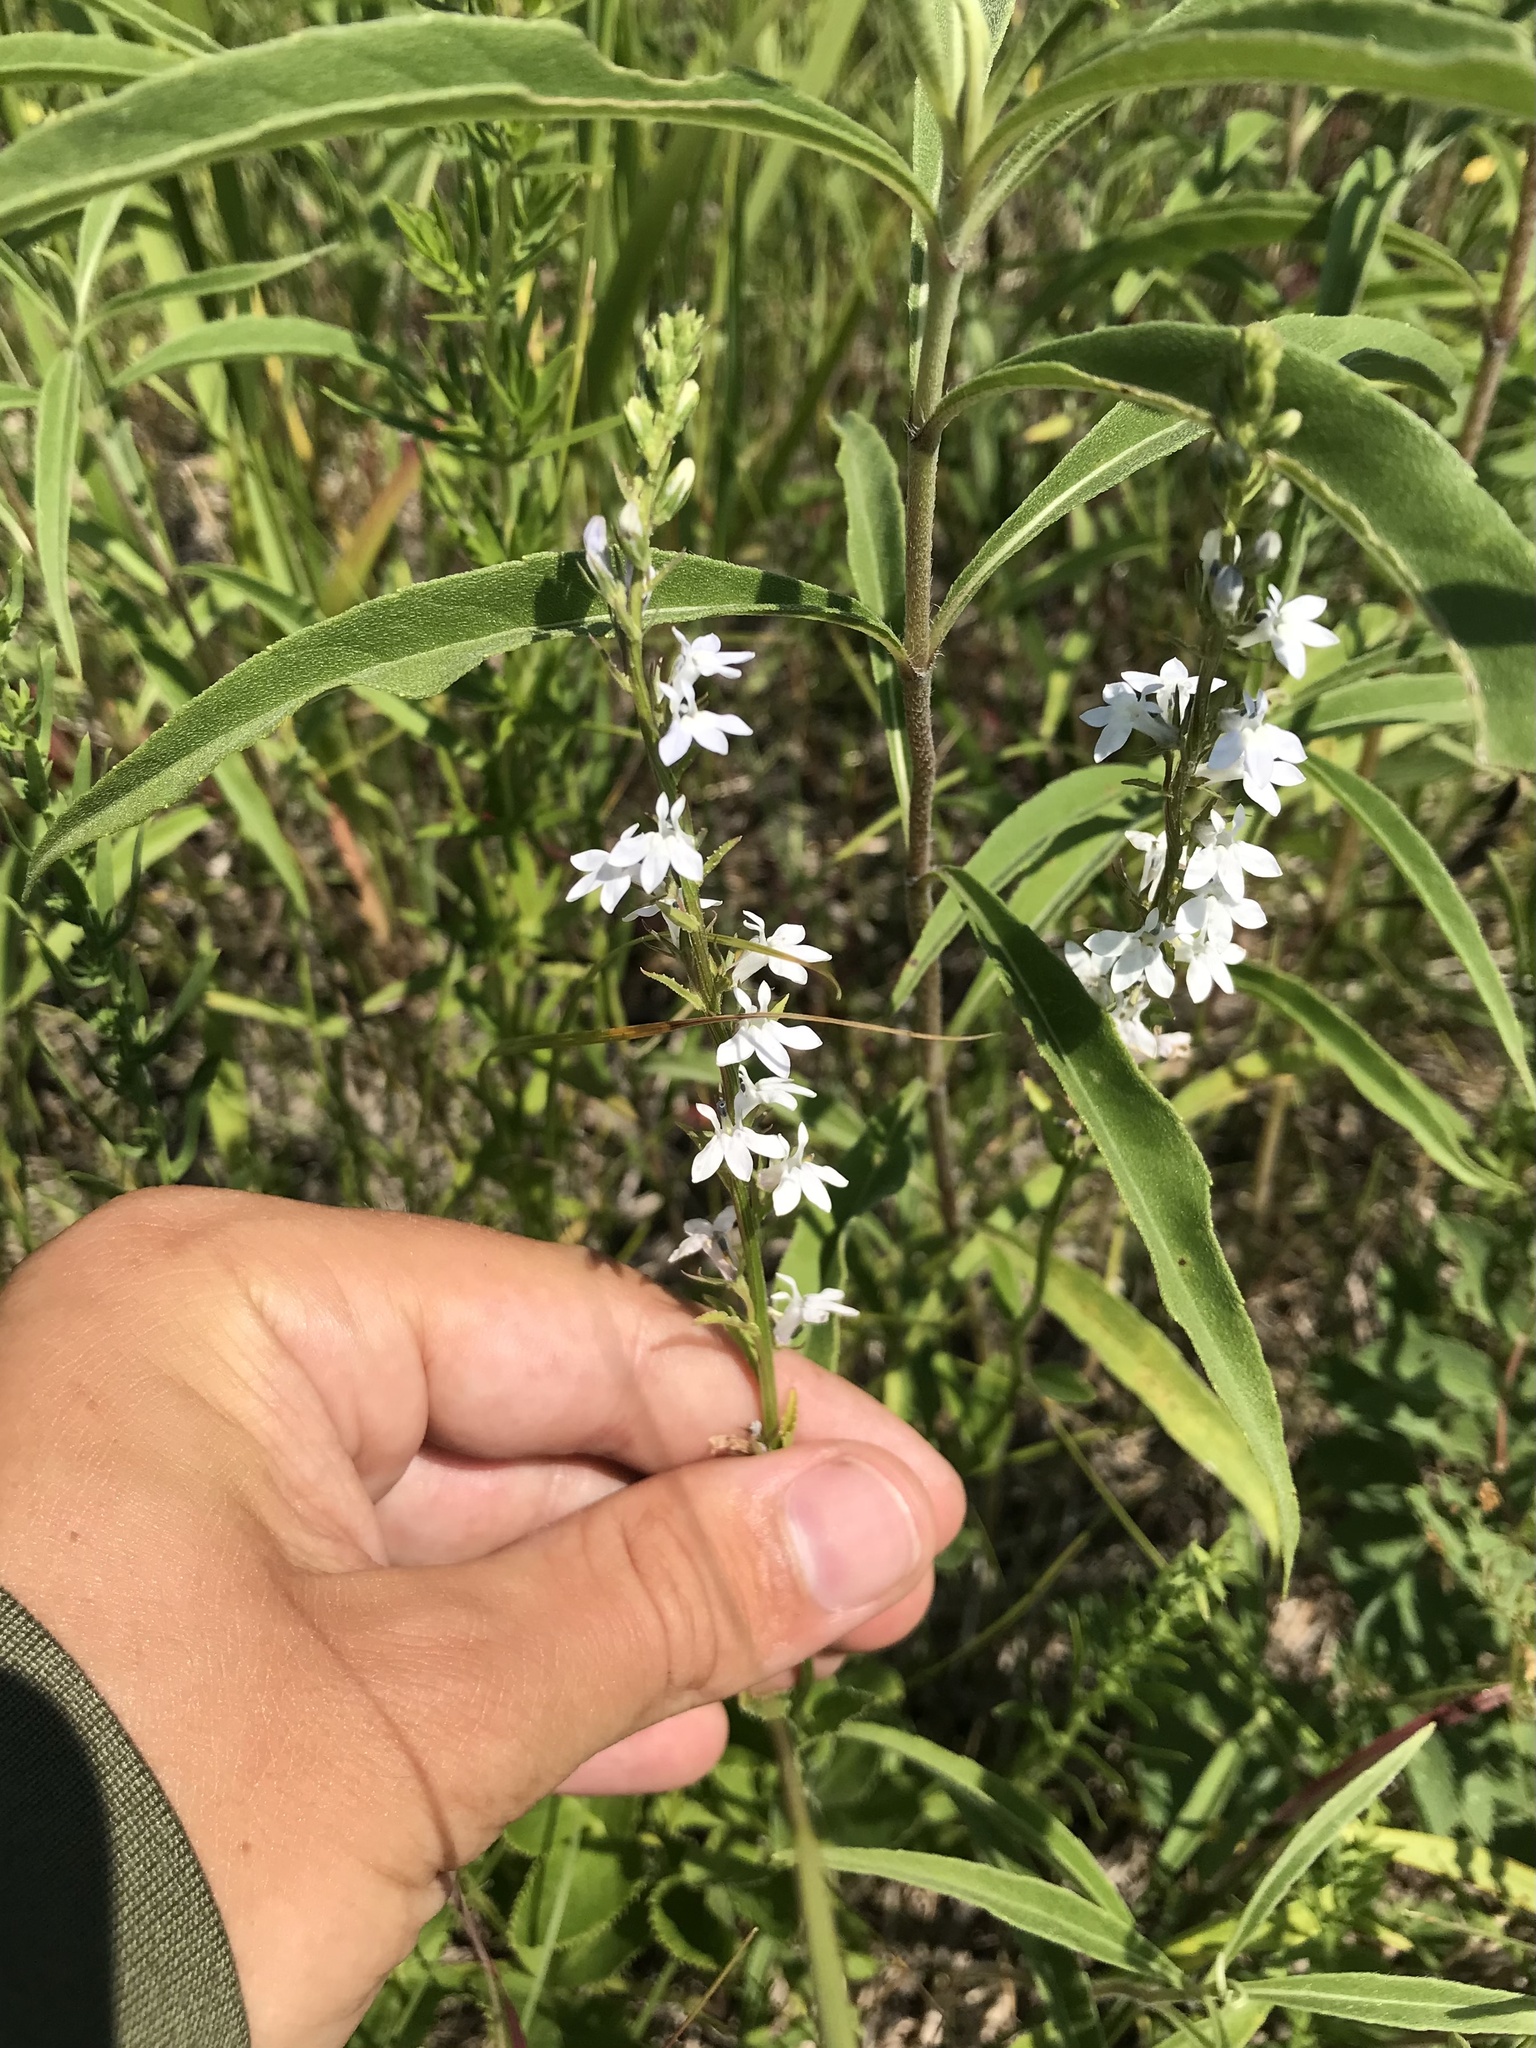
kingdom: Plantae
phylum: Tracheophyta
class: Magnoliopsida
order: Asterales
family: Campanulaceae
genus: Lobelia
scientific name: Lobelia spicata
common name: Pale-spike lobelia
